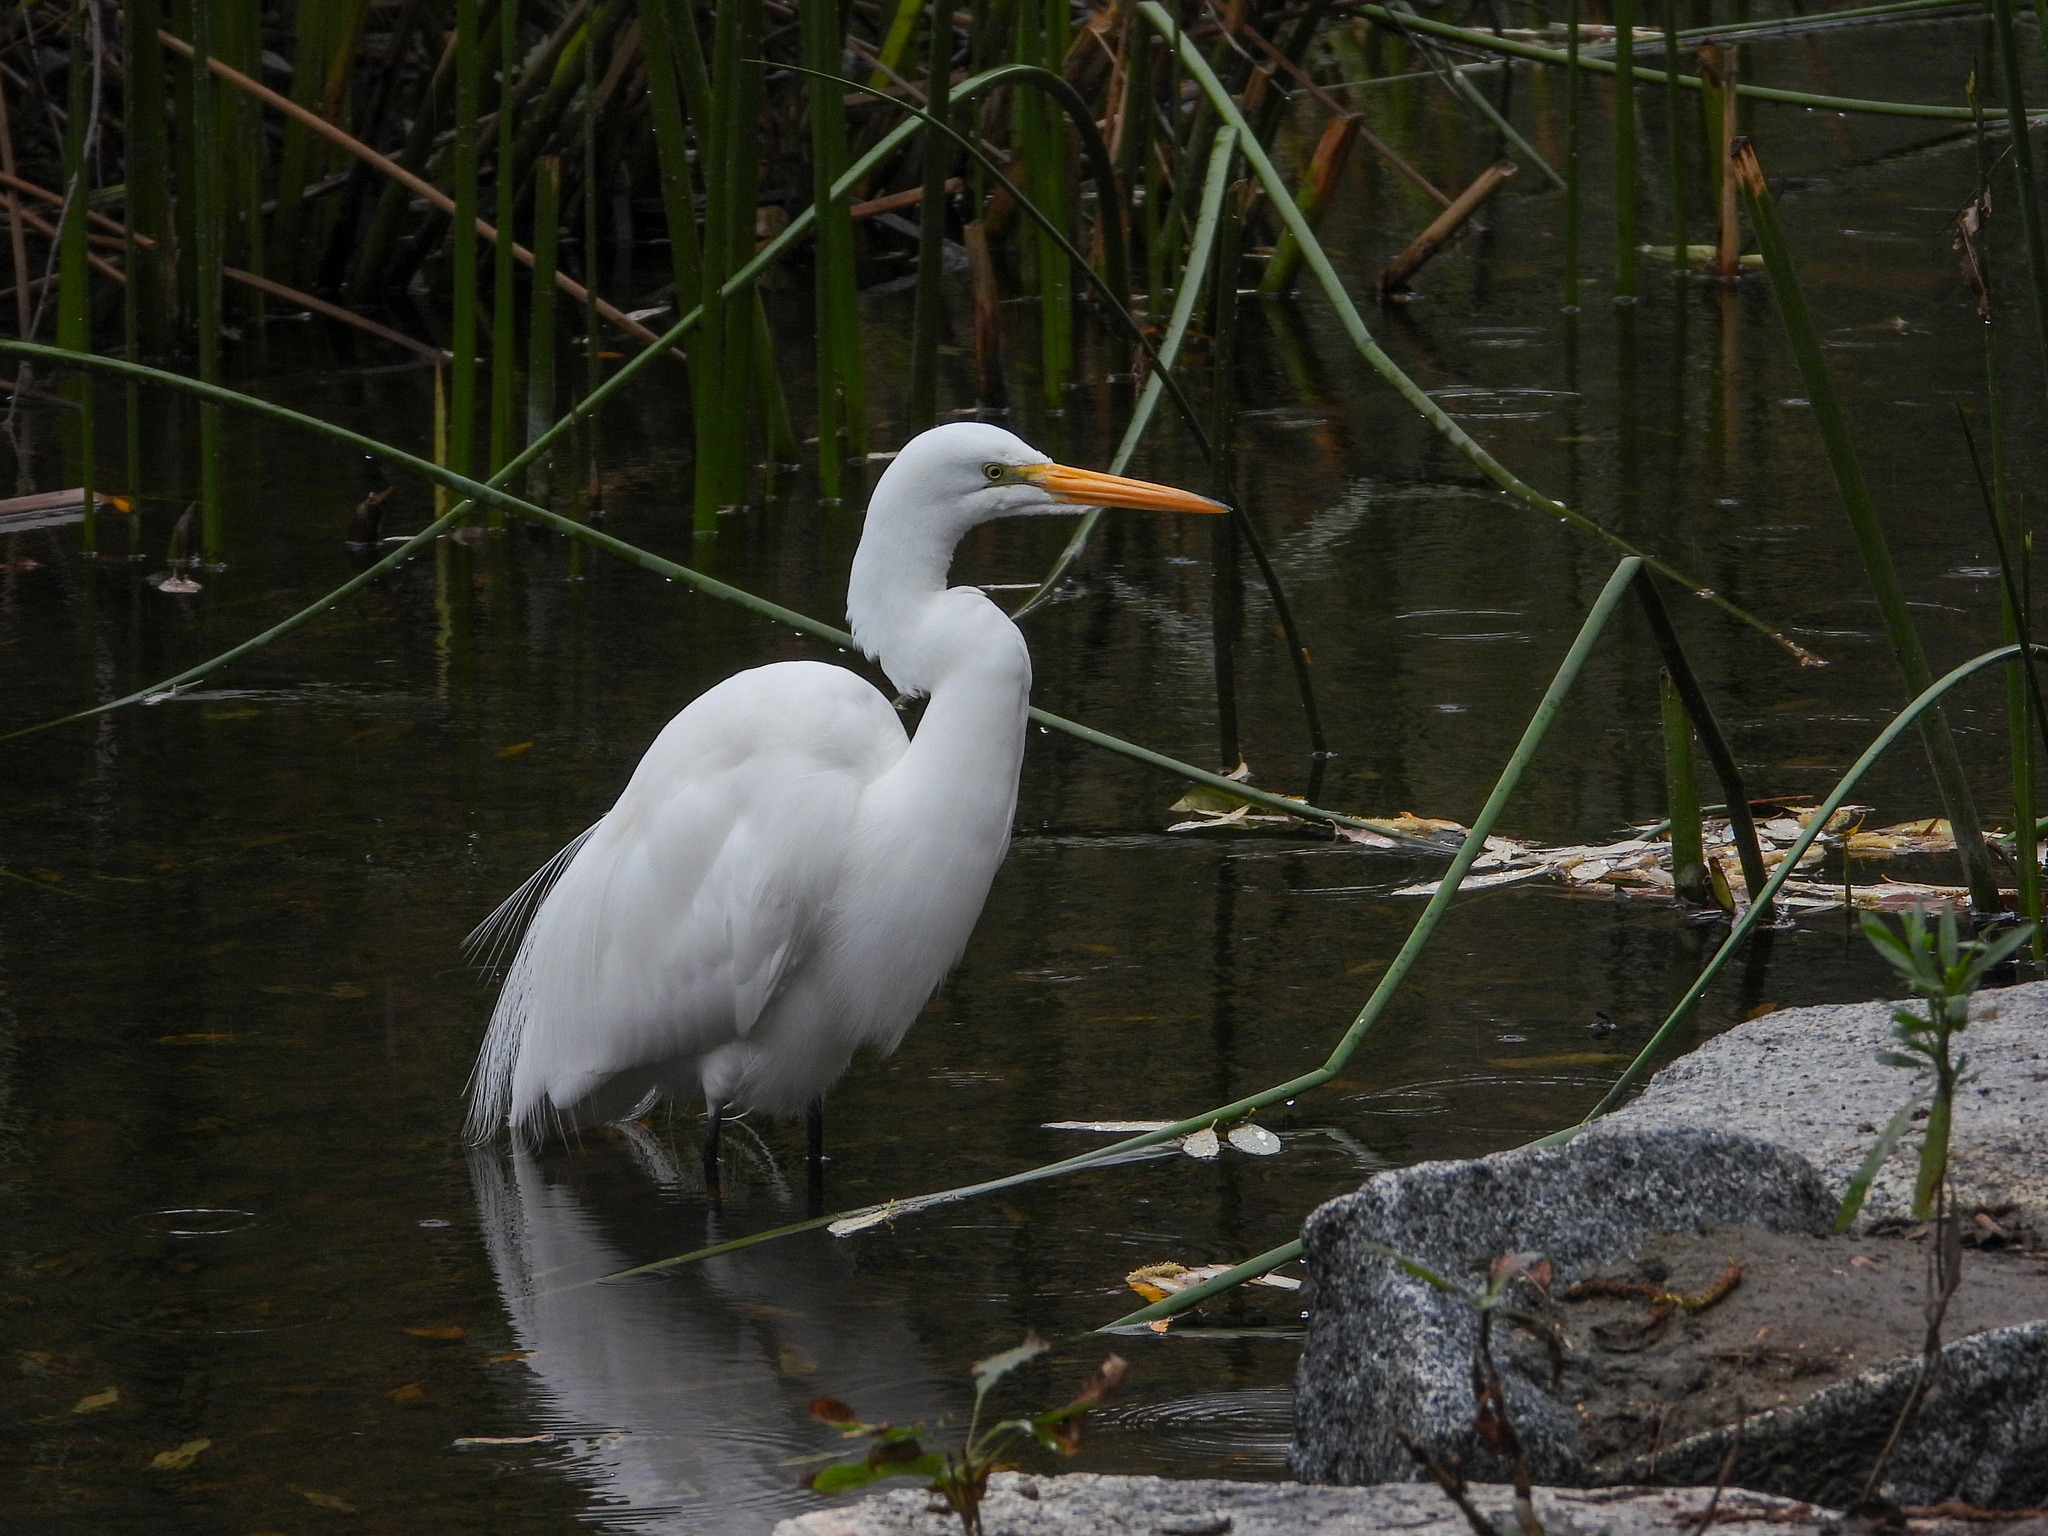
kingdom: Animalia
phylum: Chordata
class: Aves
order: Pelecaniformes
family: Ardeidae
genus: Ardea
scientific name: Ardea alba
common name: Great egret
